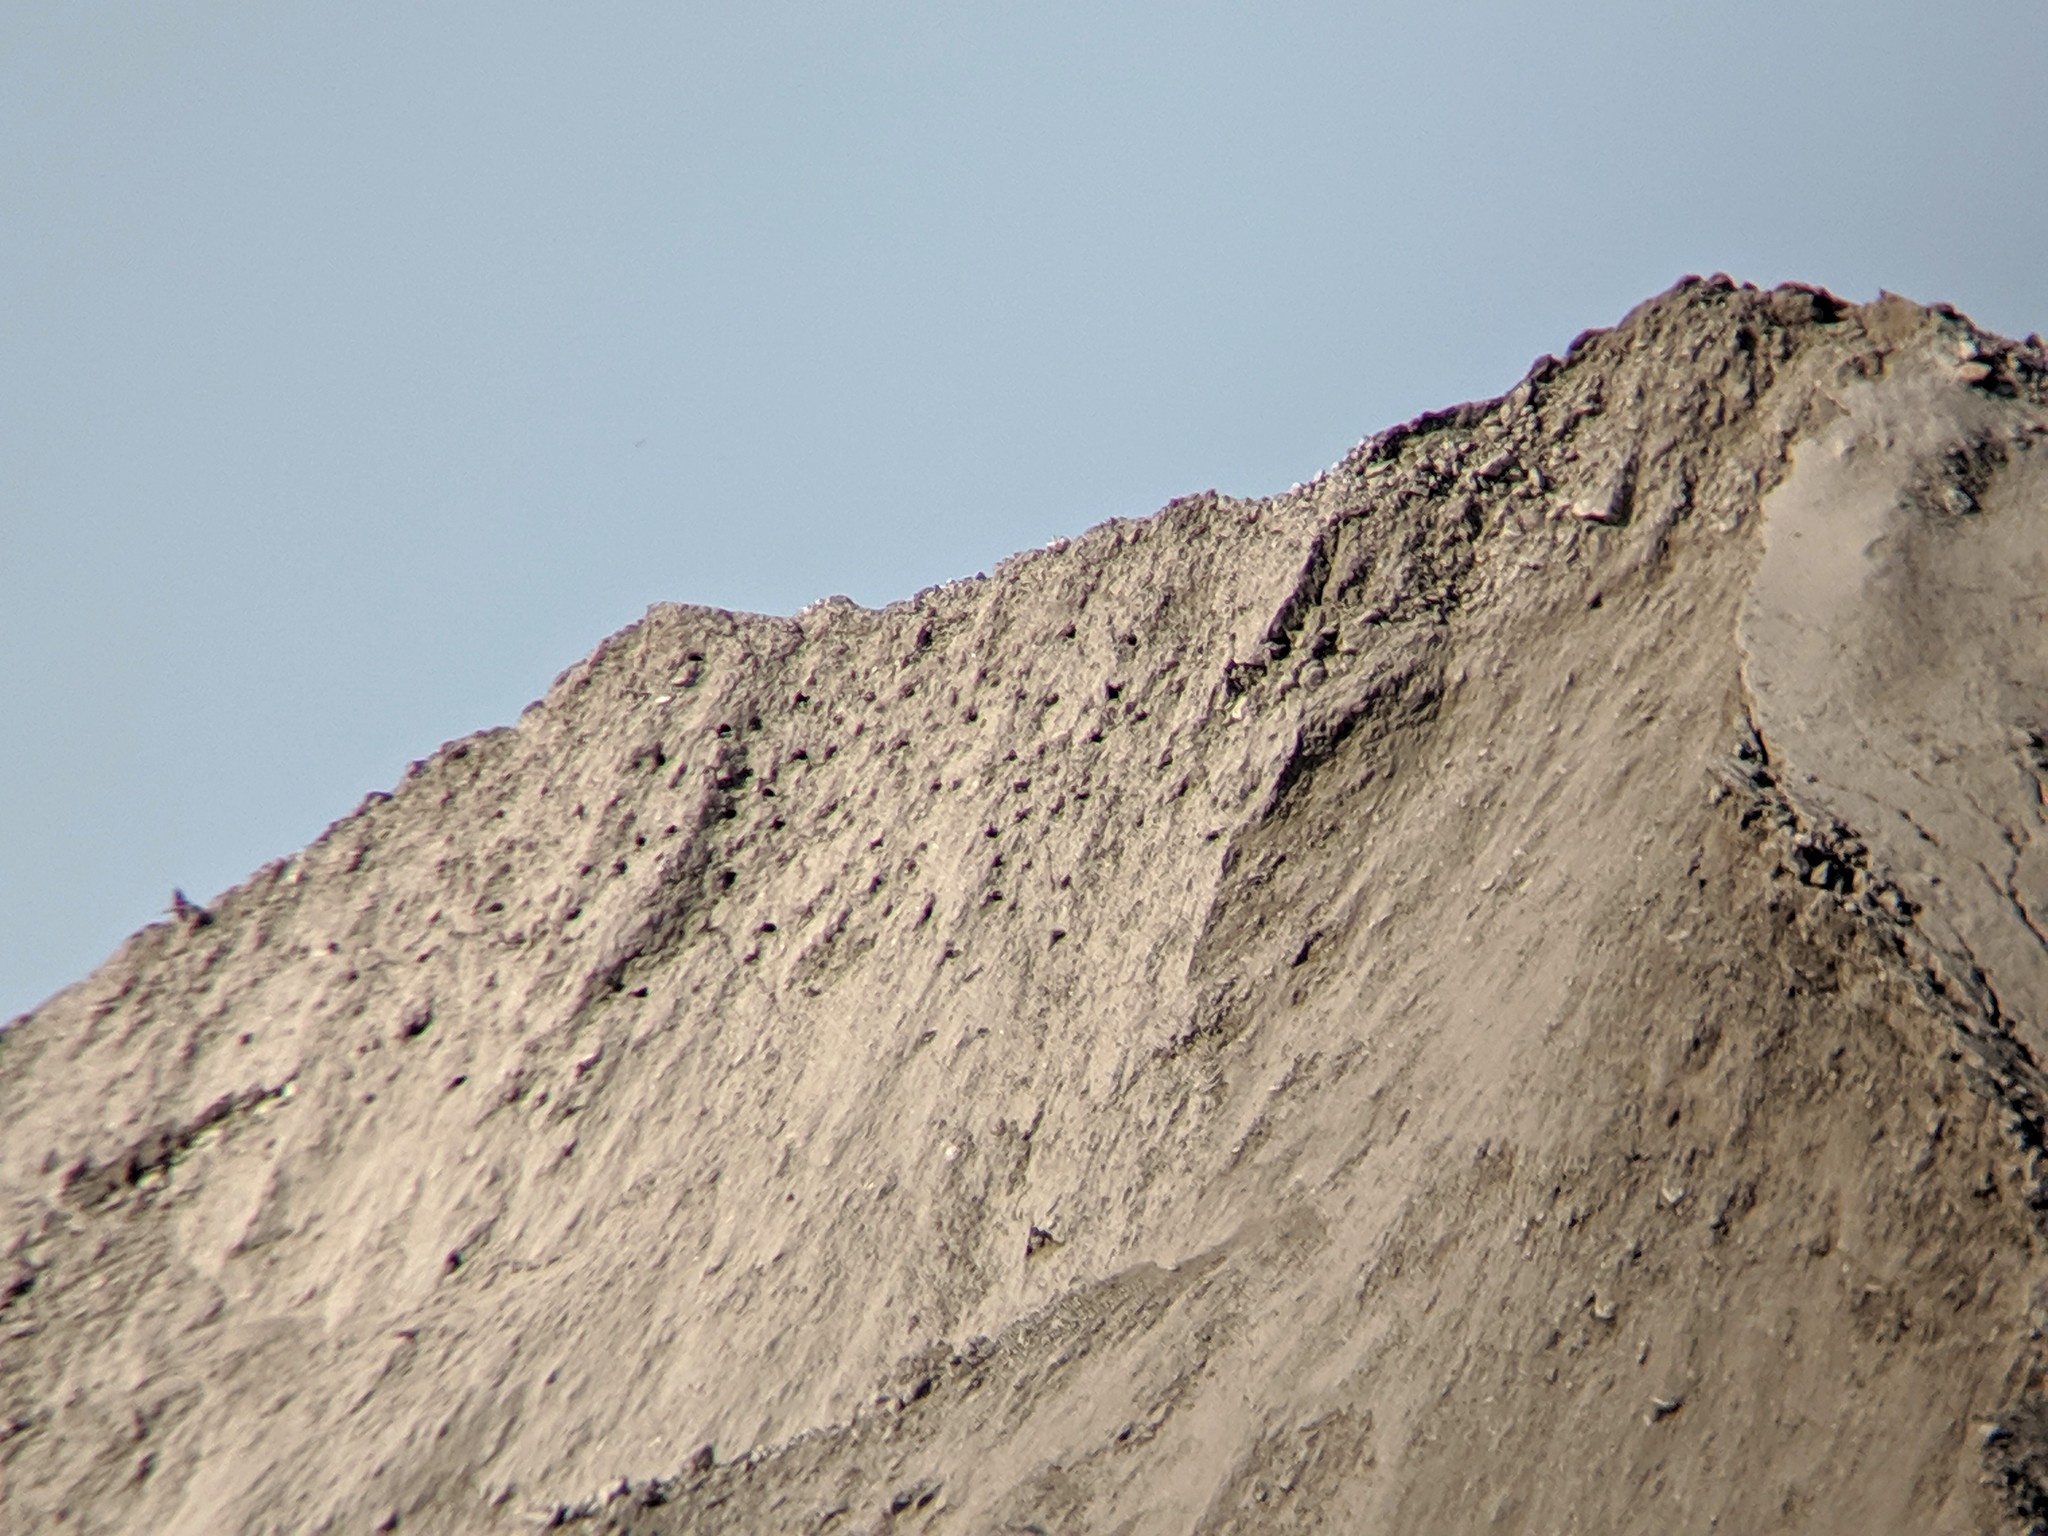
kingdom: Animalia
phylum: Chordata
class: Aves
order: Passeriformes
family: Hirundinidae
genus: Riparia
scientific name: Riparia riparia
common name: Sand martin
